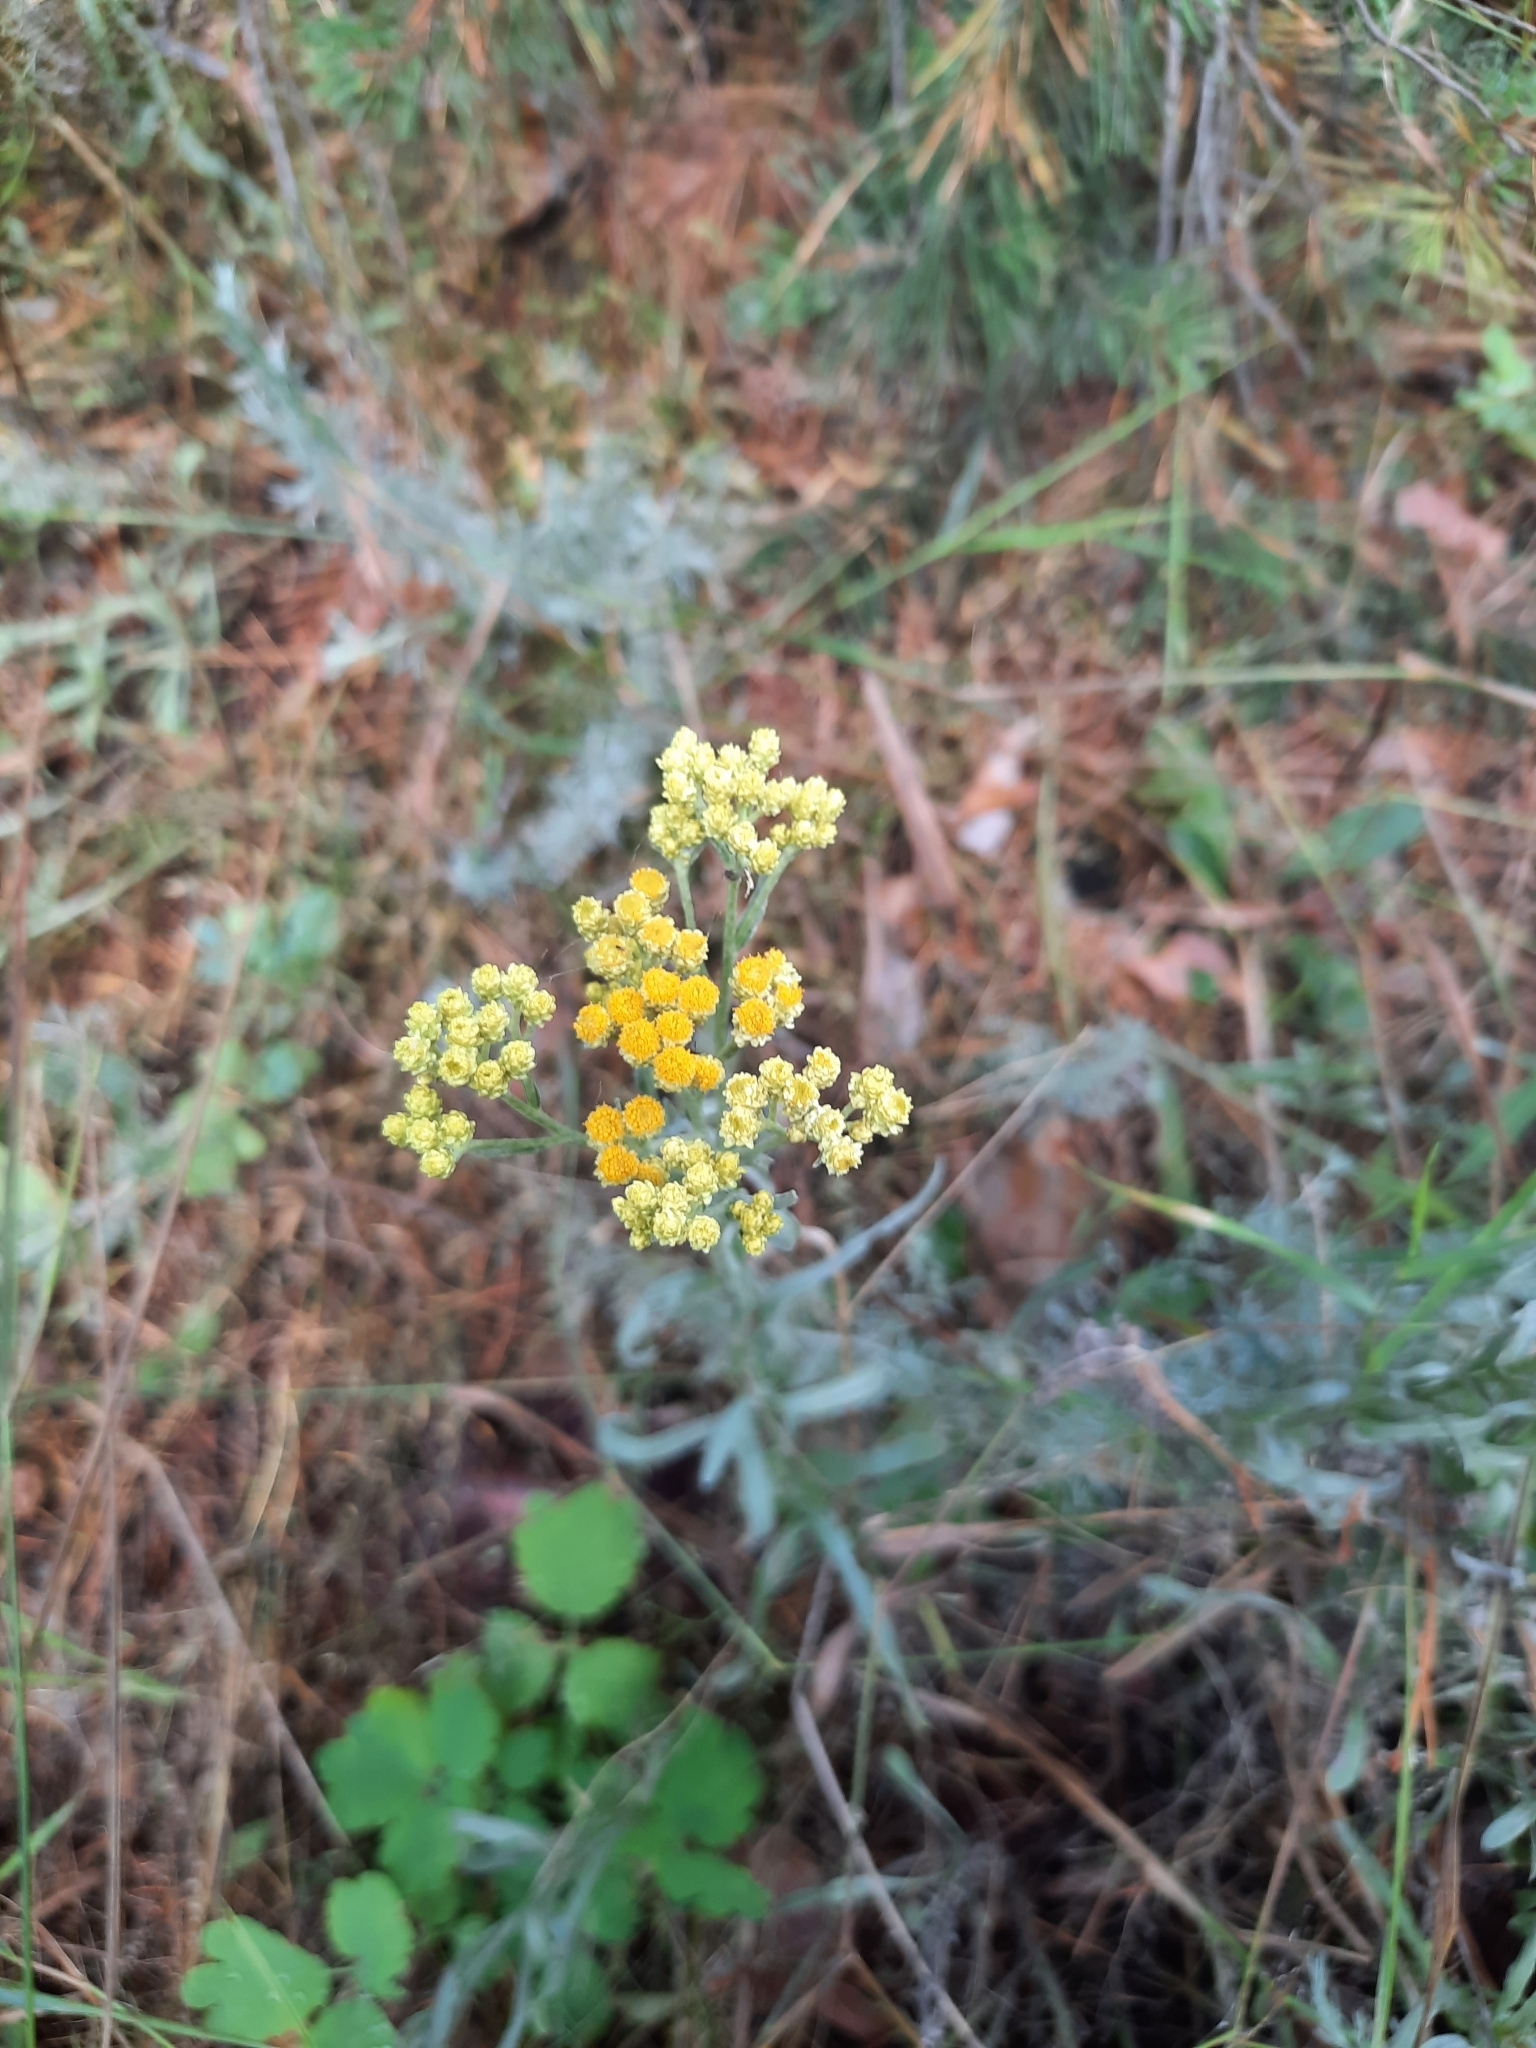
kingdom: Plantae
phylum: Tracheophyta
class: Magnoliopsida
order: Asterales
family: Asteraceae
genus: Helichrysum
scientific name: Helichrysum arenarium
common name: Strawflower
